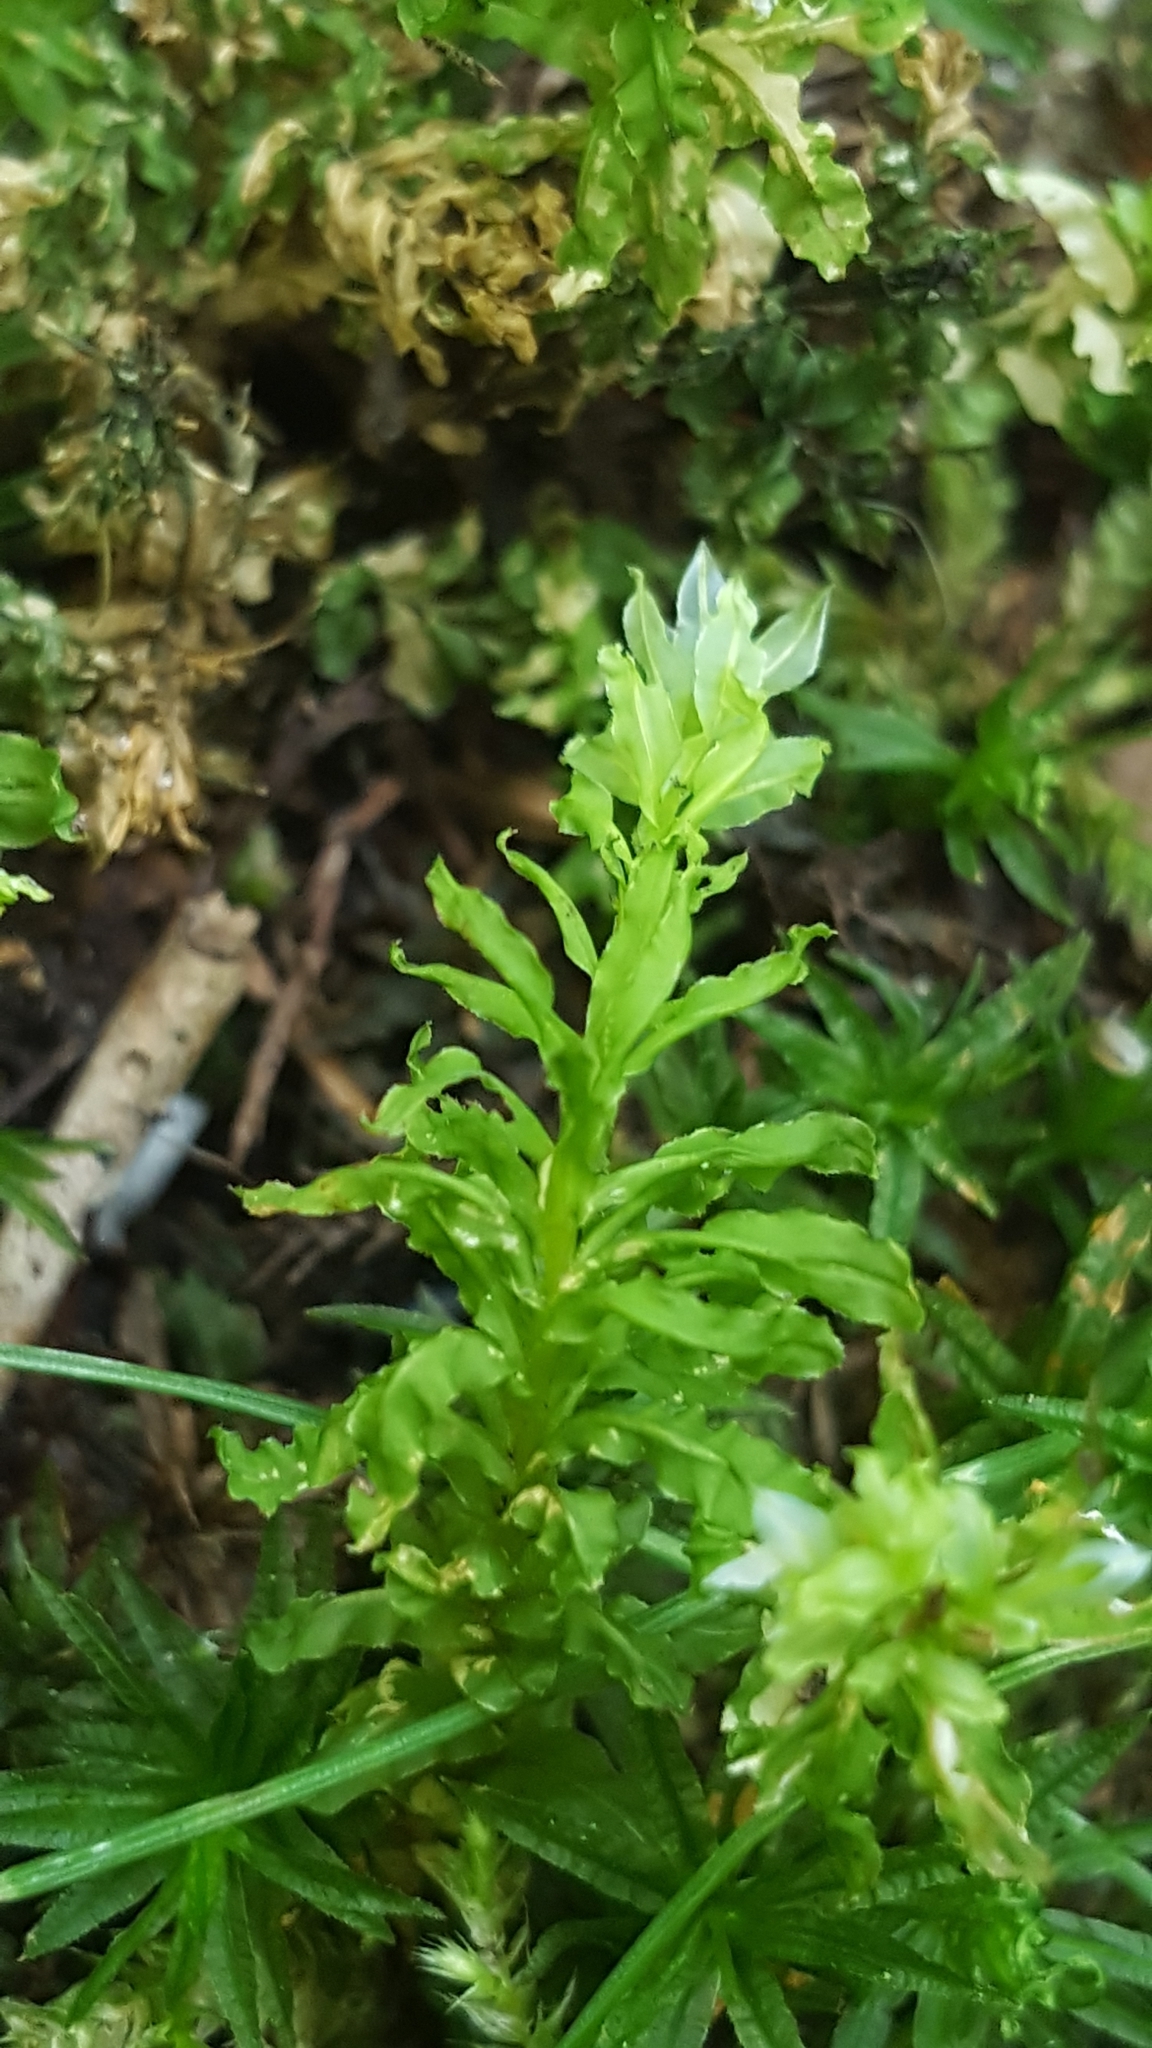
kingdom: Plantae
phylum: Bryophyta
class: Bryopsida
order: Bryales
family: Mniaceae
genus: Plagiomnium
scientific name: Plagiomnium undulatum
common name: Hart's-tongue thyme-moss
